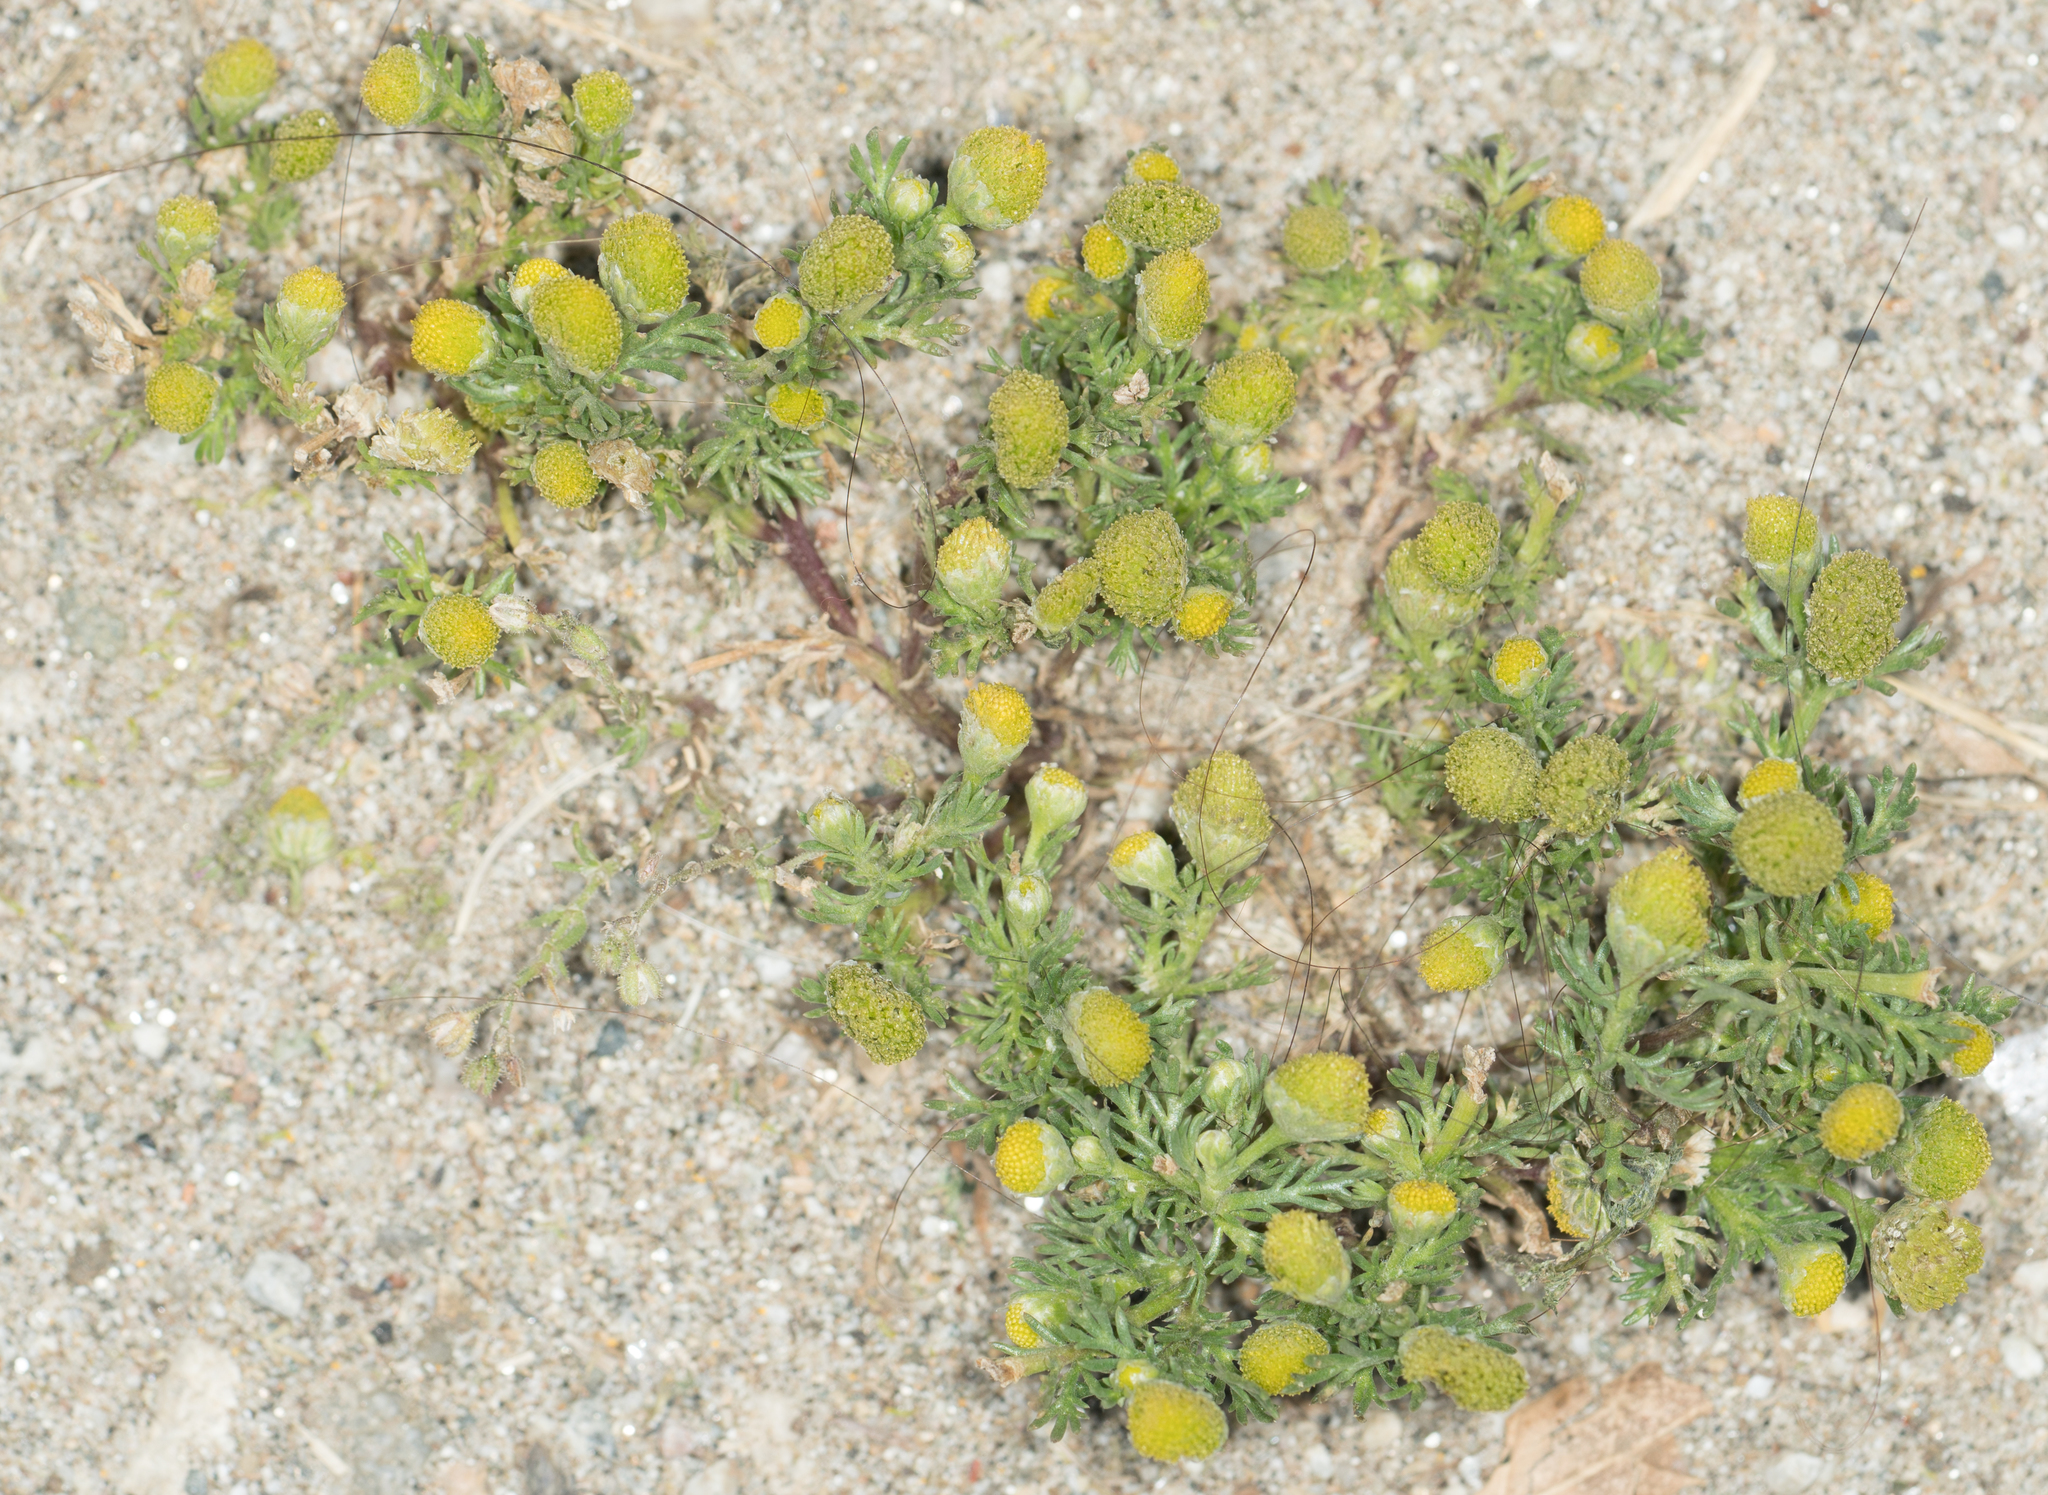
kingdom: Plantae
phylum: Tracheophyta
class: Magnoliopsida
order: Asterales
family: Asteraceae
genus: Matricaria
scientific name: Matricaria discoidea
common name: Disc mayweed
